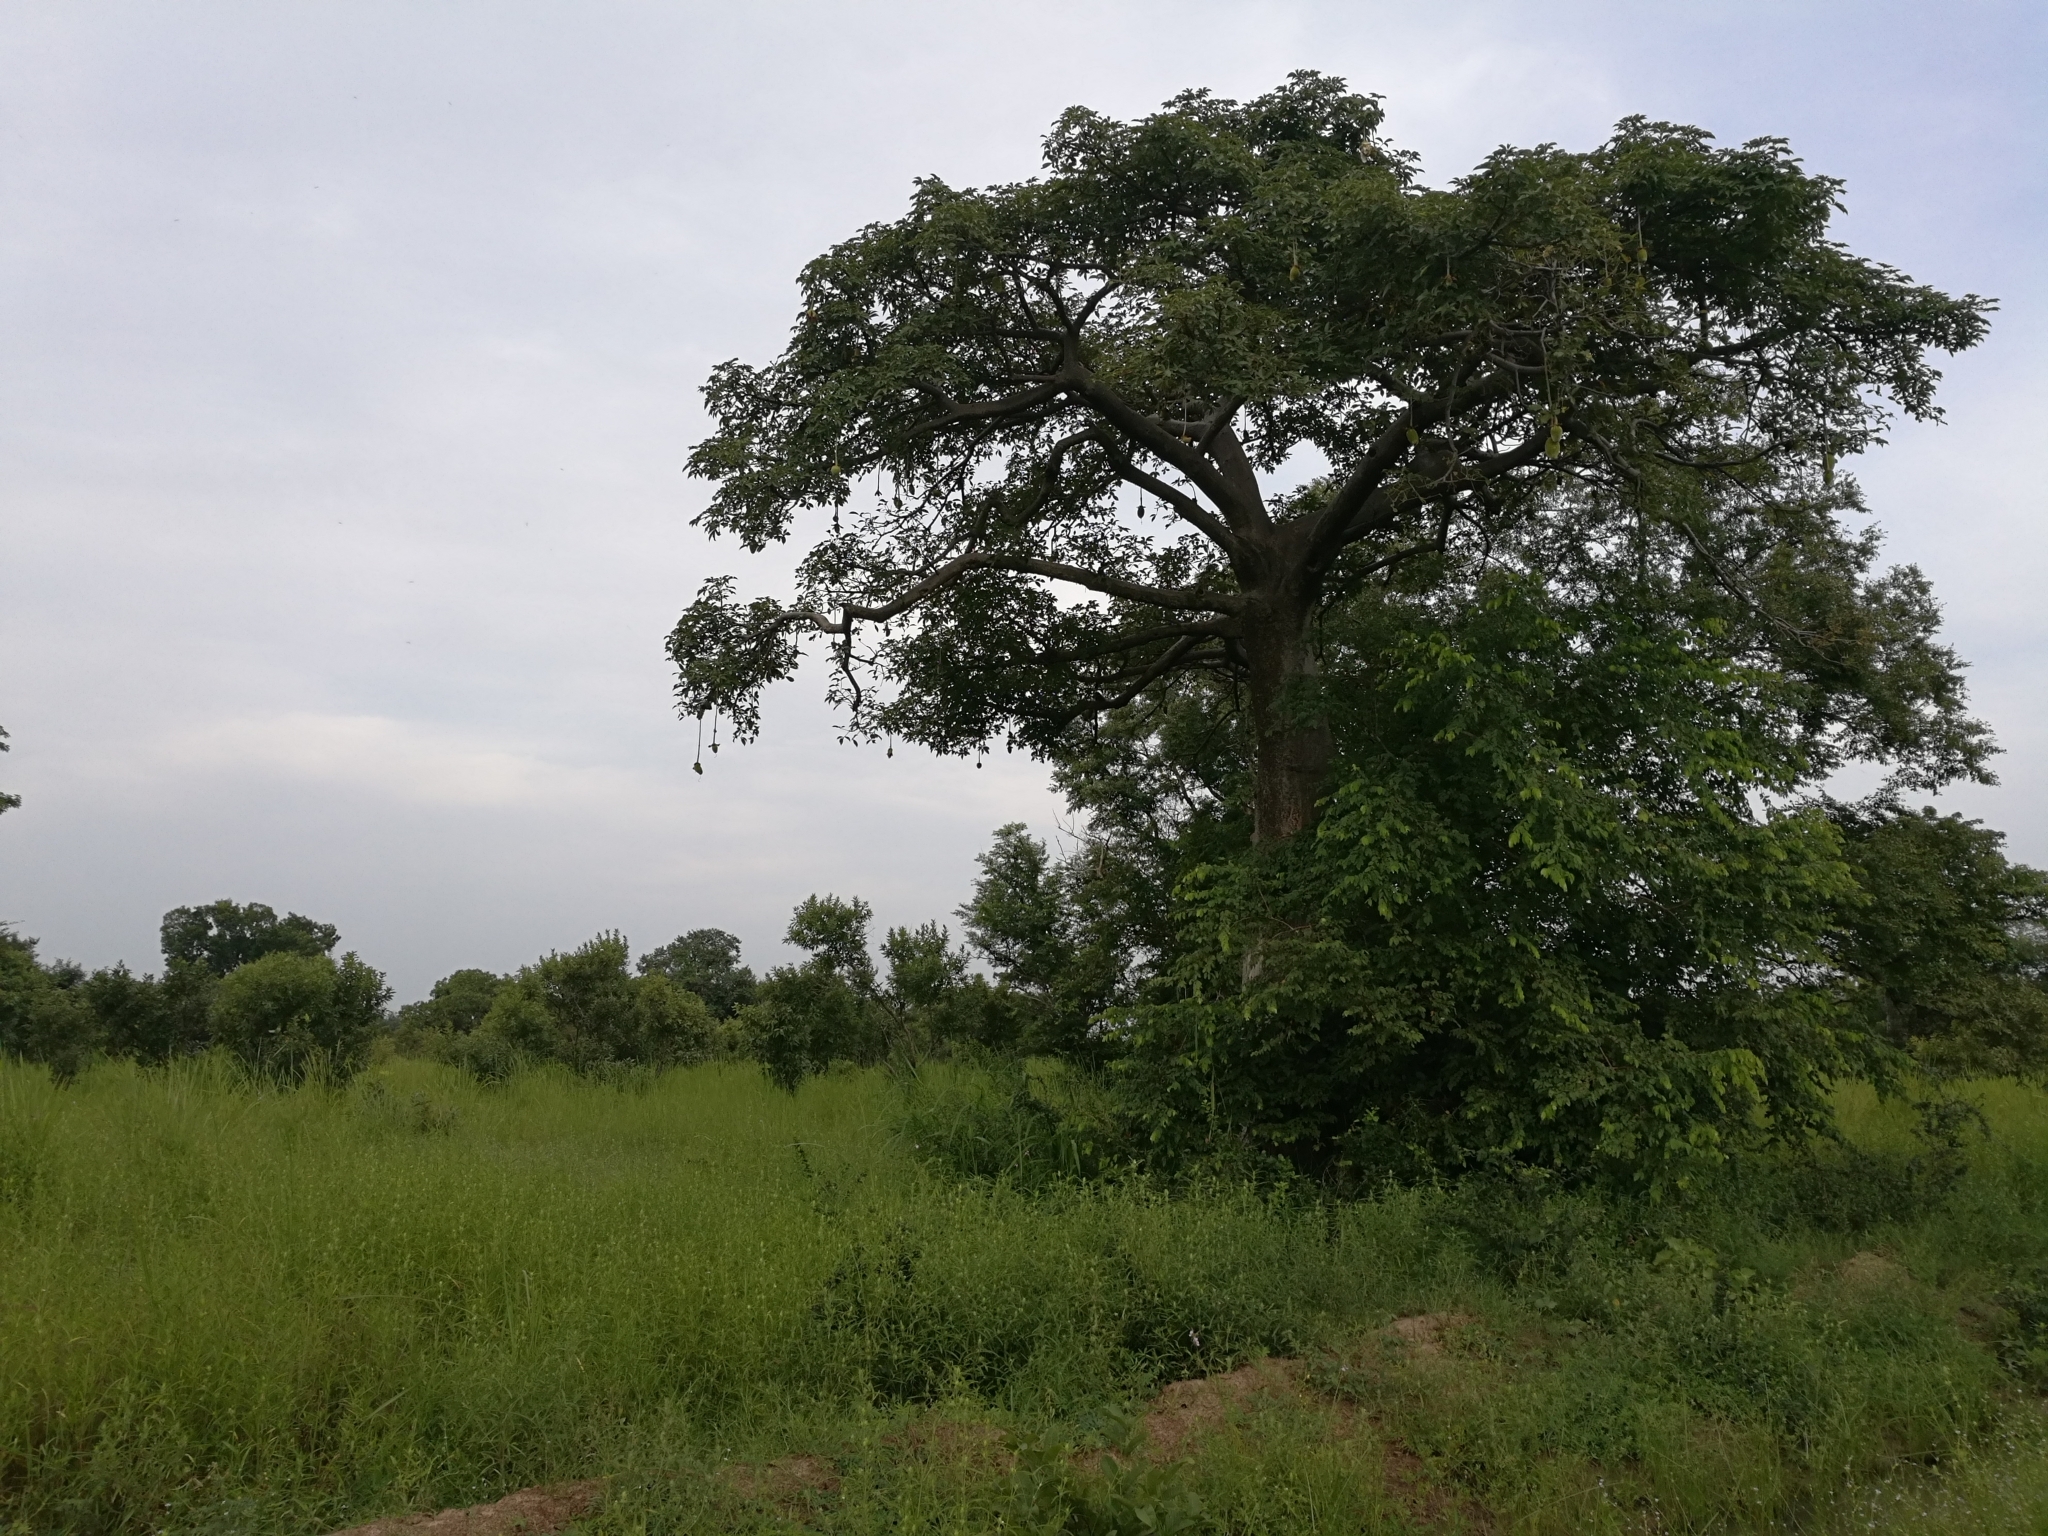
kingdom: Plantae
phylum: Tracheophyta
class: Magnoliopsida
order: Malvales
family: Malvaceae
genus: Adansonia
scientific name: Adansonia digitata
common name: Dead-rat-tree
